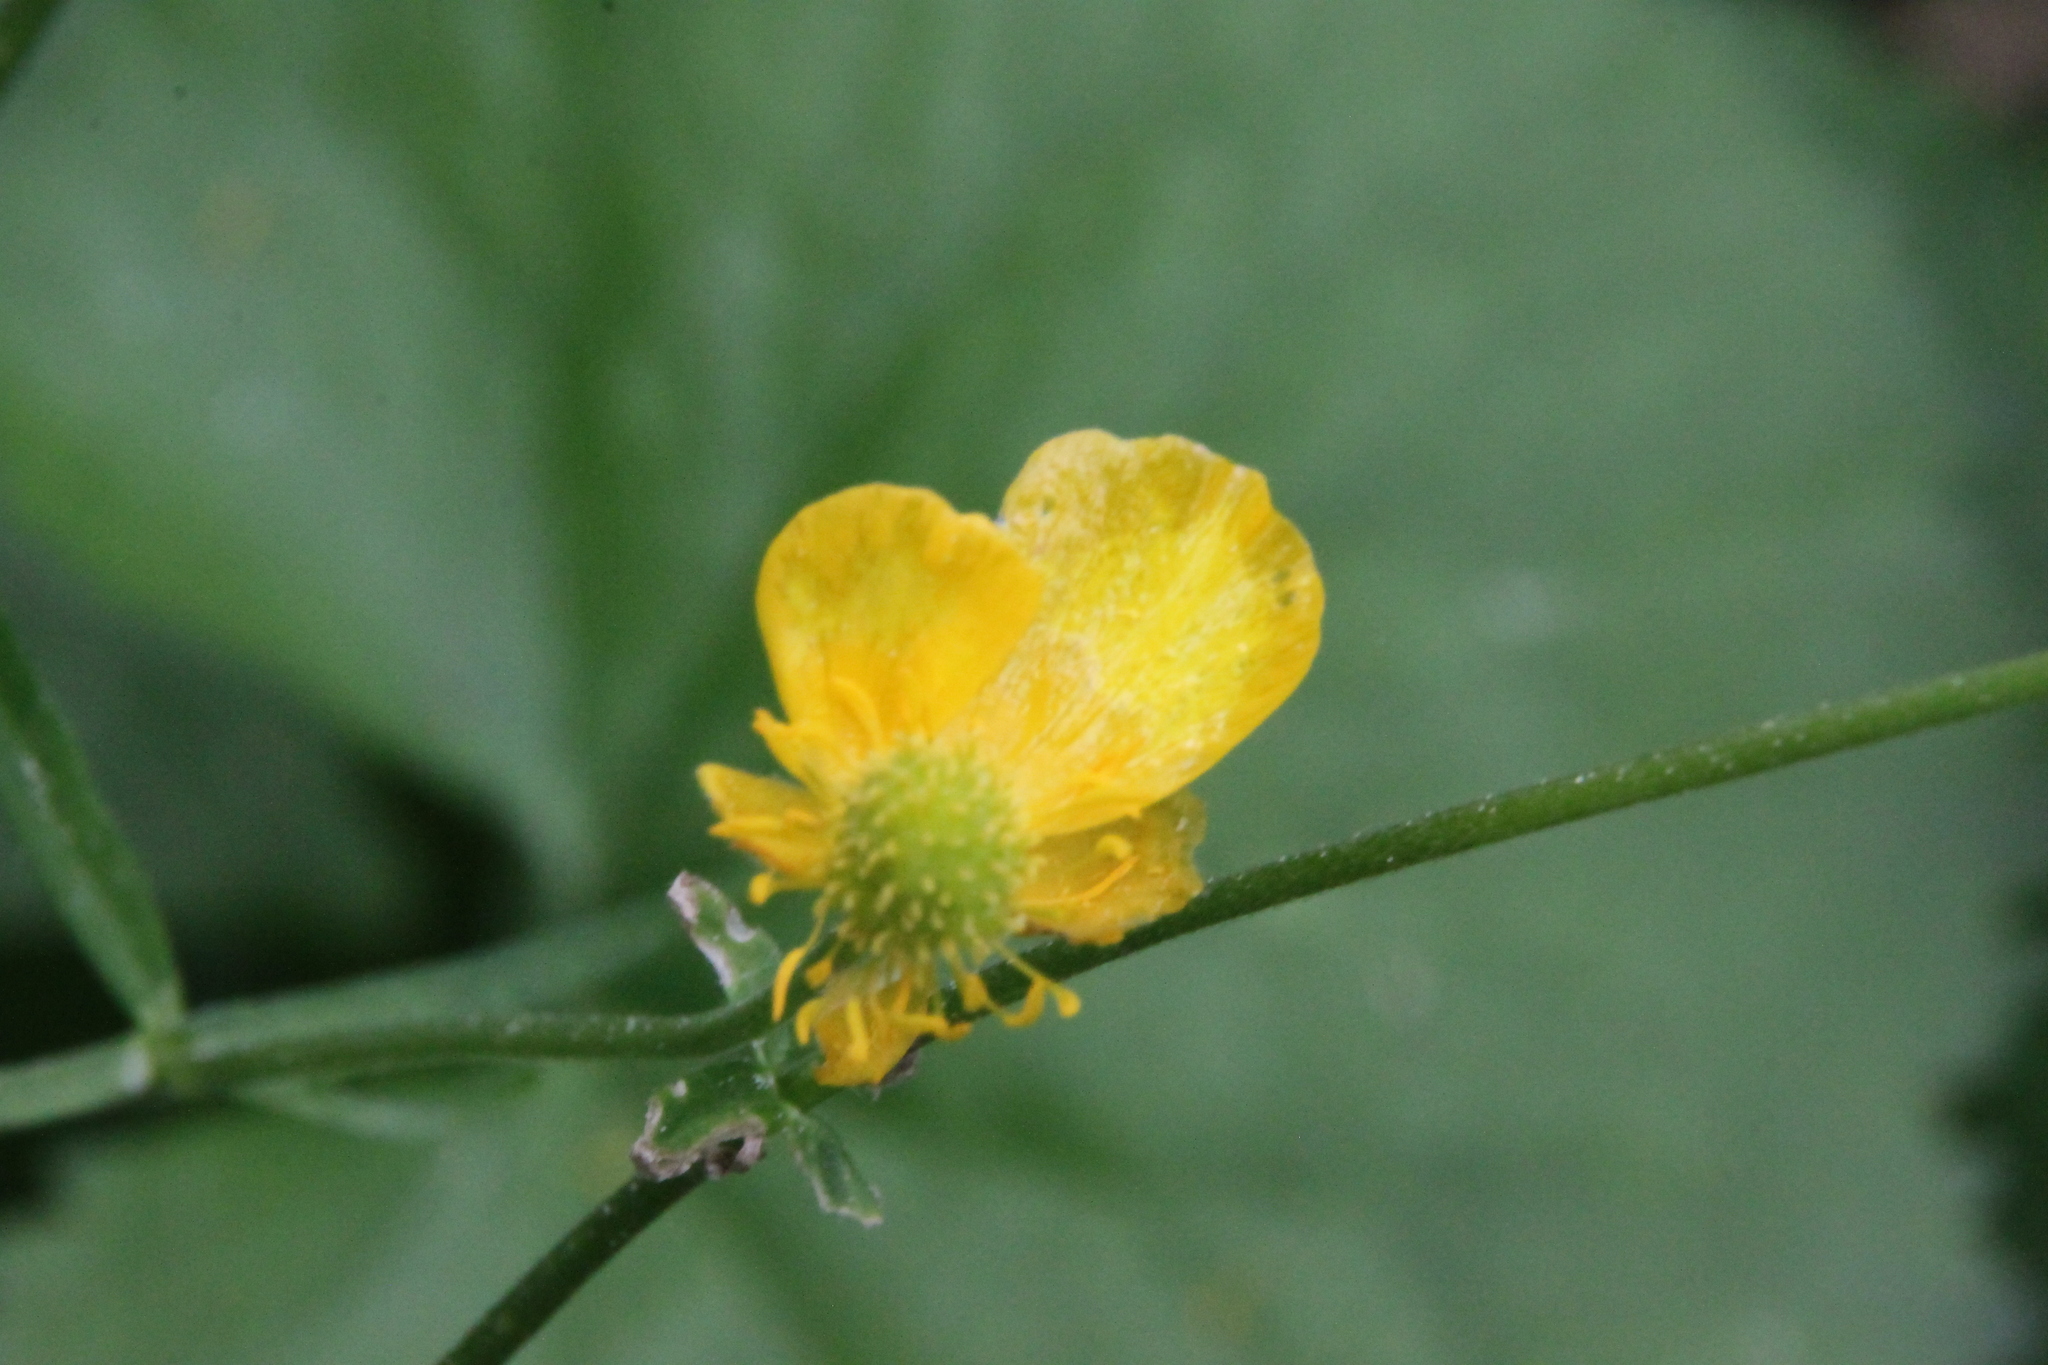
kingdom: Plantae
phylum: Tracheophyta
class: Magnoliopsida
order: Ranunculales
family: Ranunculaceae
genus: Ranunculus
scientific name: Ranunculus cassubicus
